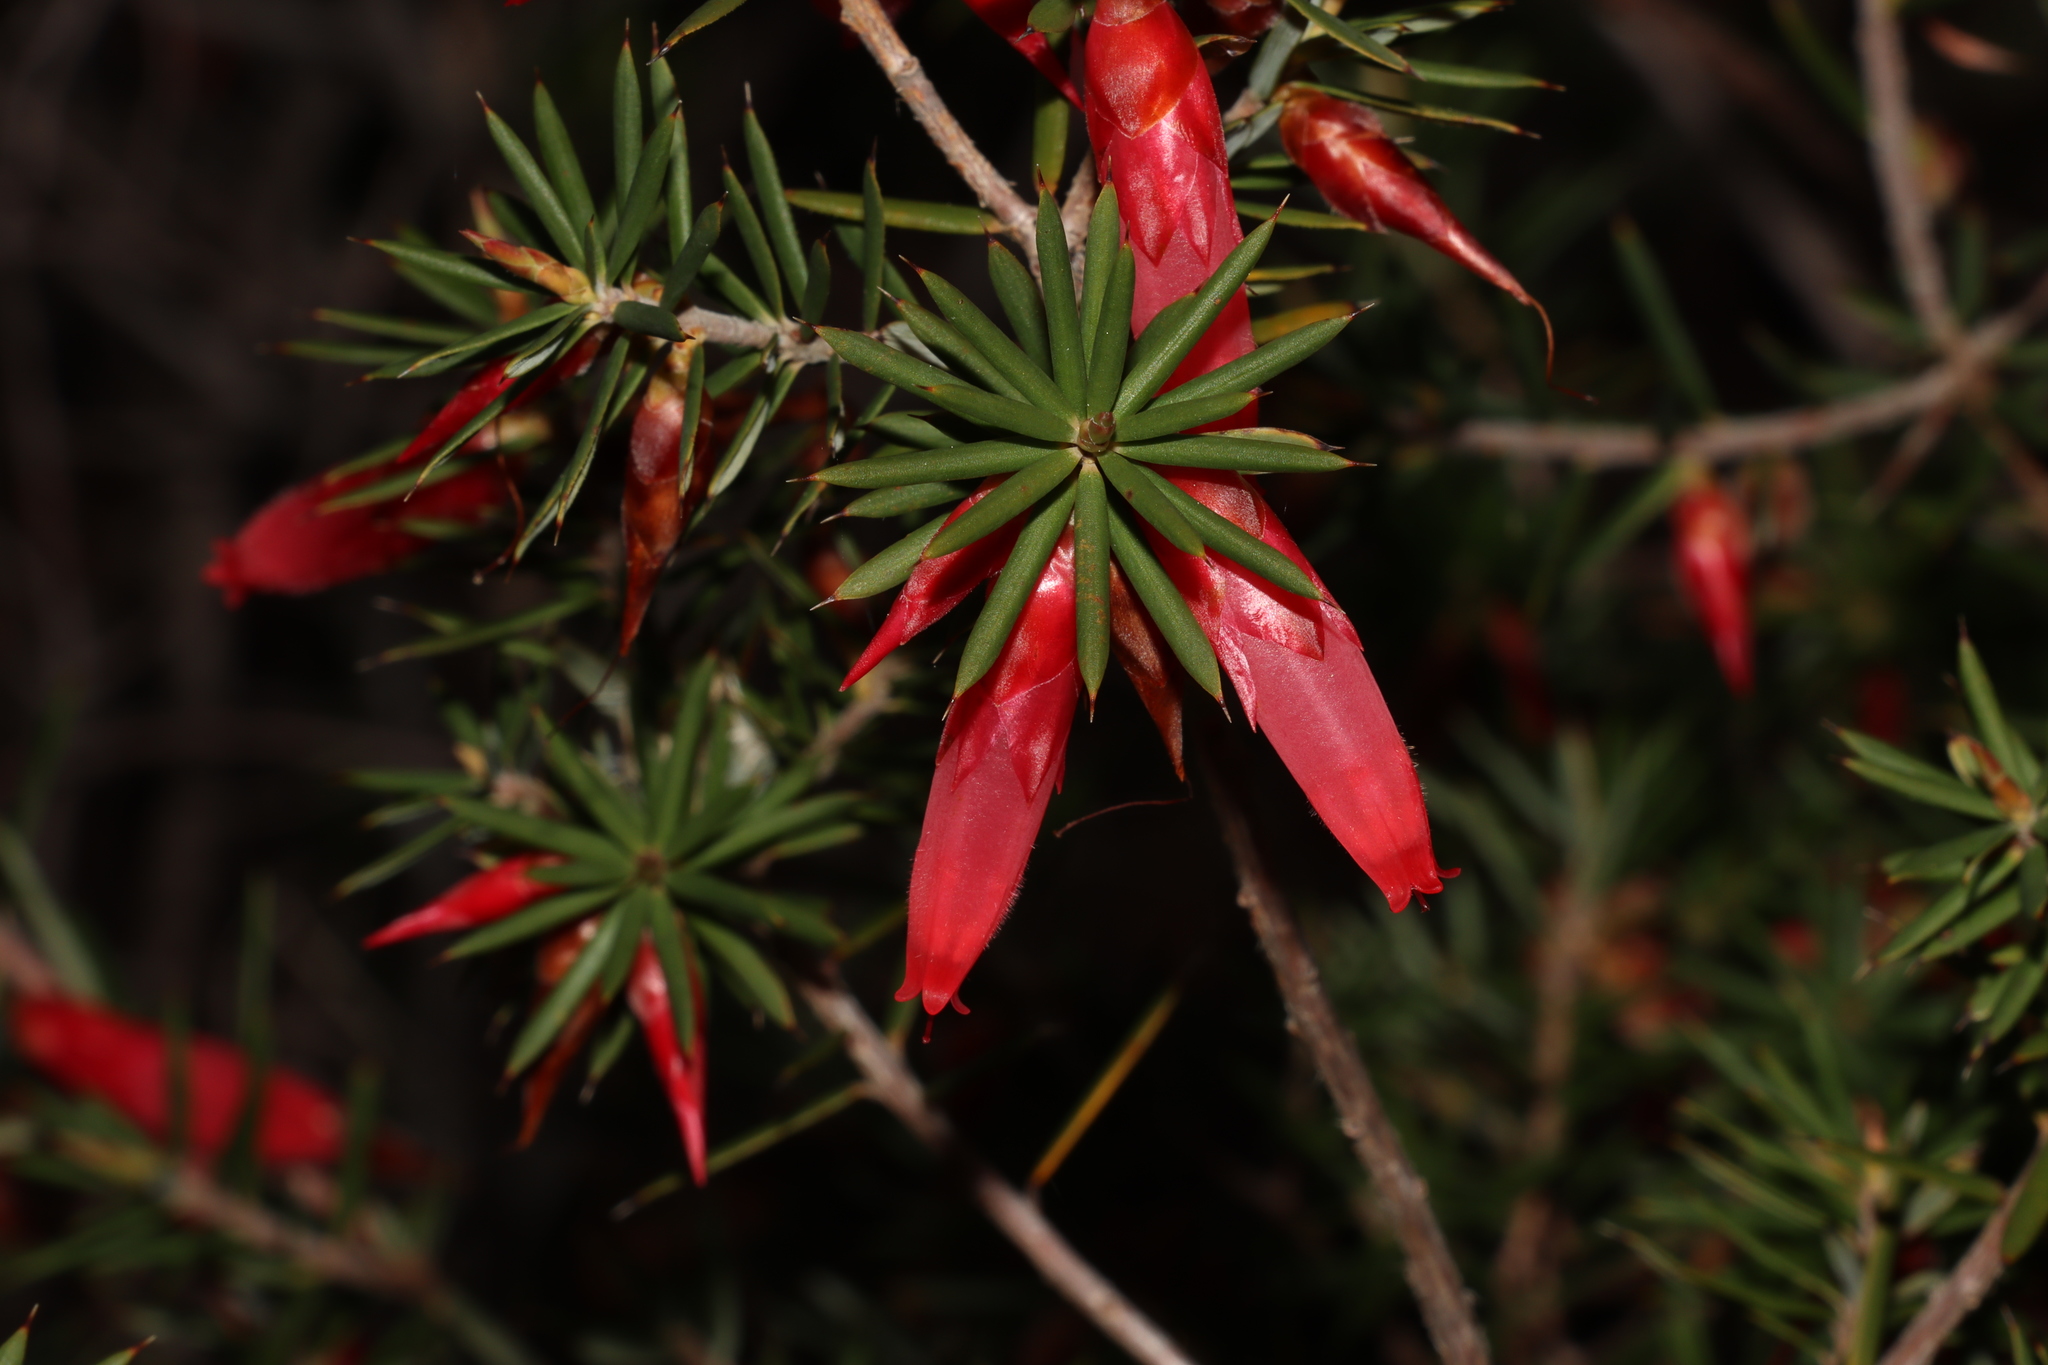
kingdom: Plantae
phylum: Tracheophyta
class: Magnoliopsida
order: Ericales
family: Ericaceae
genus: Stenanthera
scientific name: Stenanthera conostephioides
